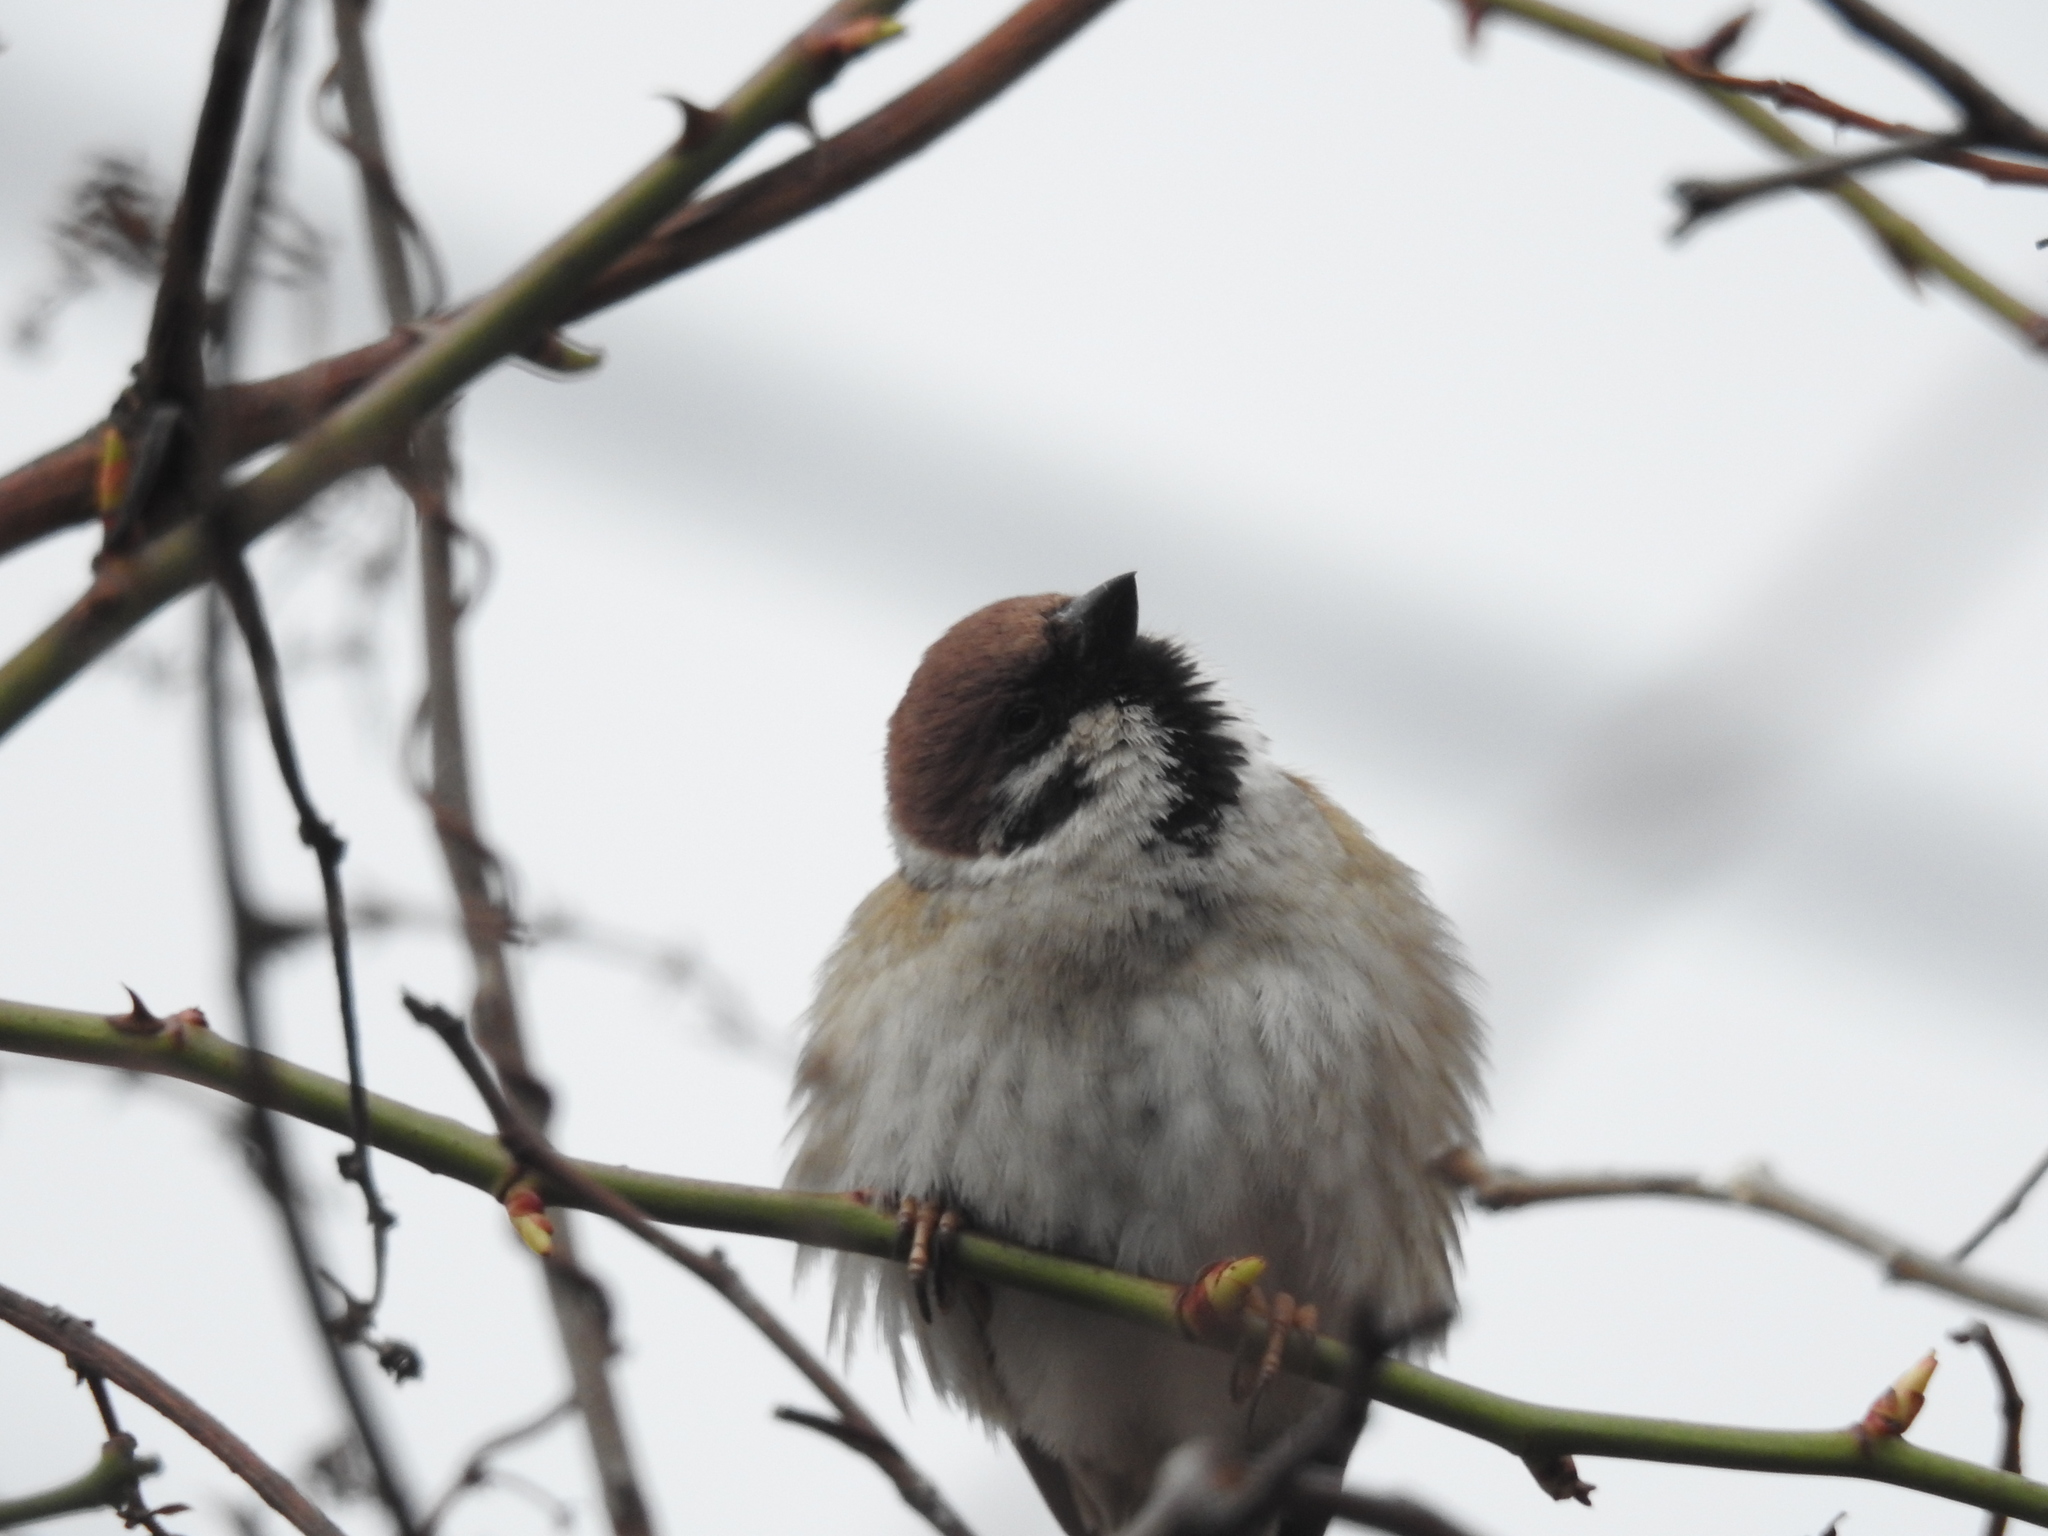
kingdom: Animalia
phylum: Chordata
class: Aves
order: Passeriformes
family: Passeridae
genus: Passer
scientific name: Passer montanus
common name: Eurasian tree sparrow
